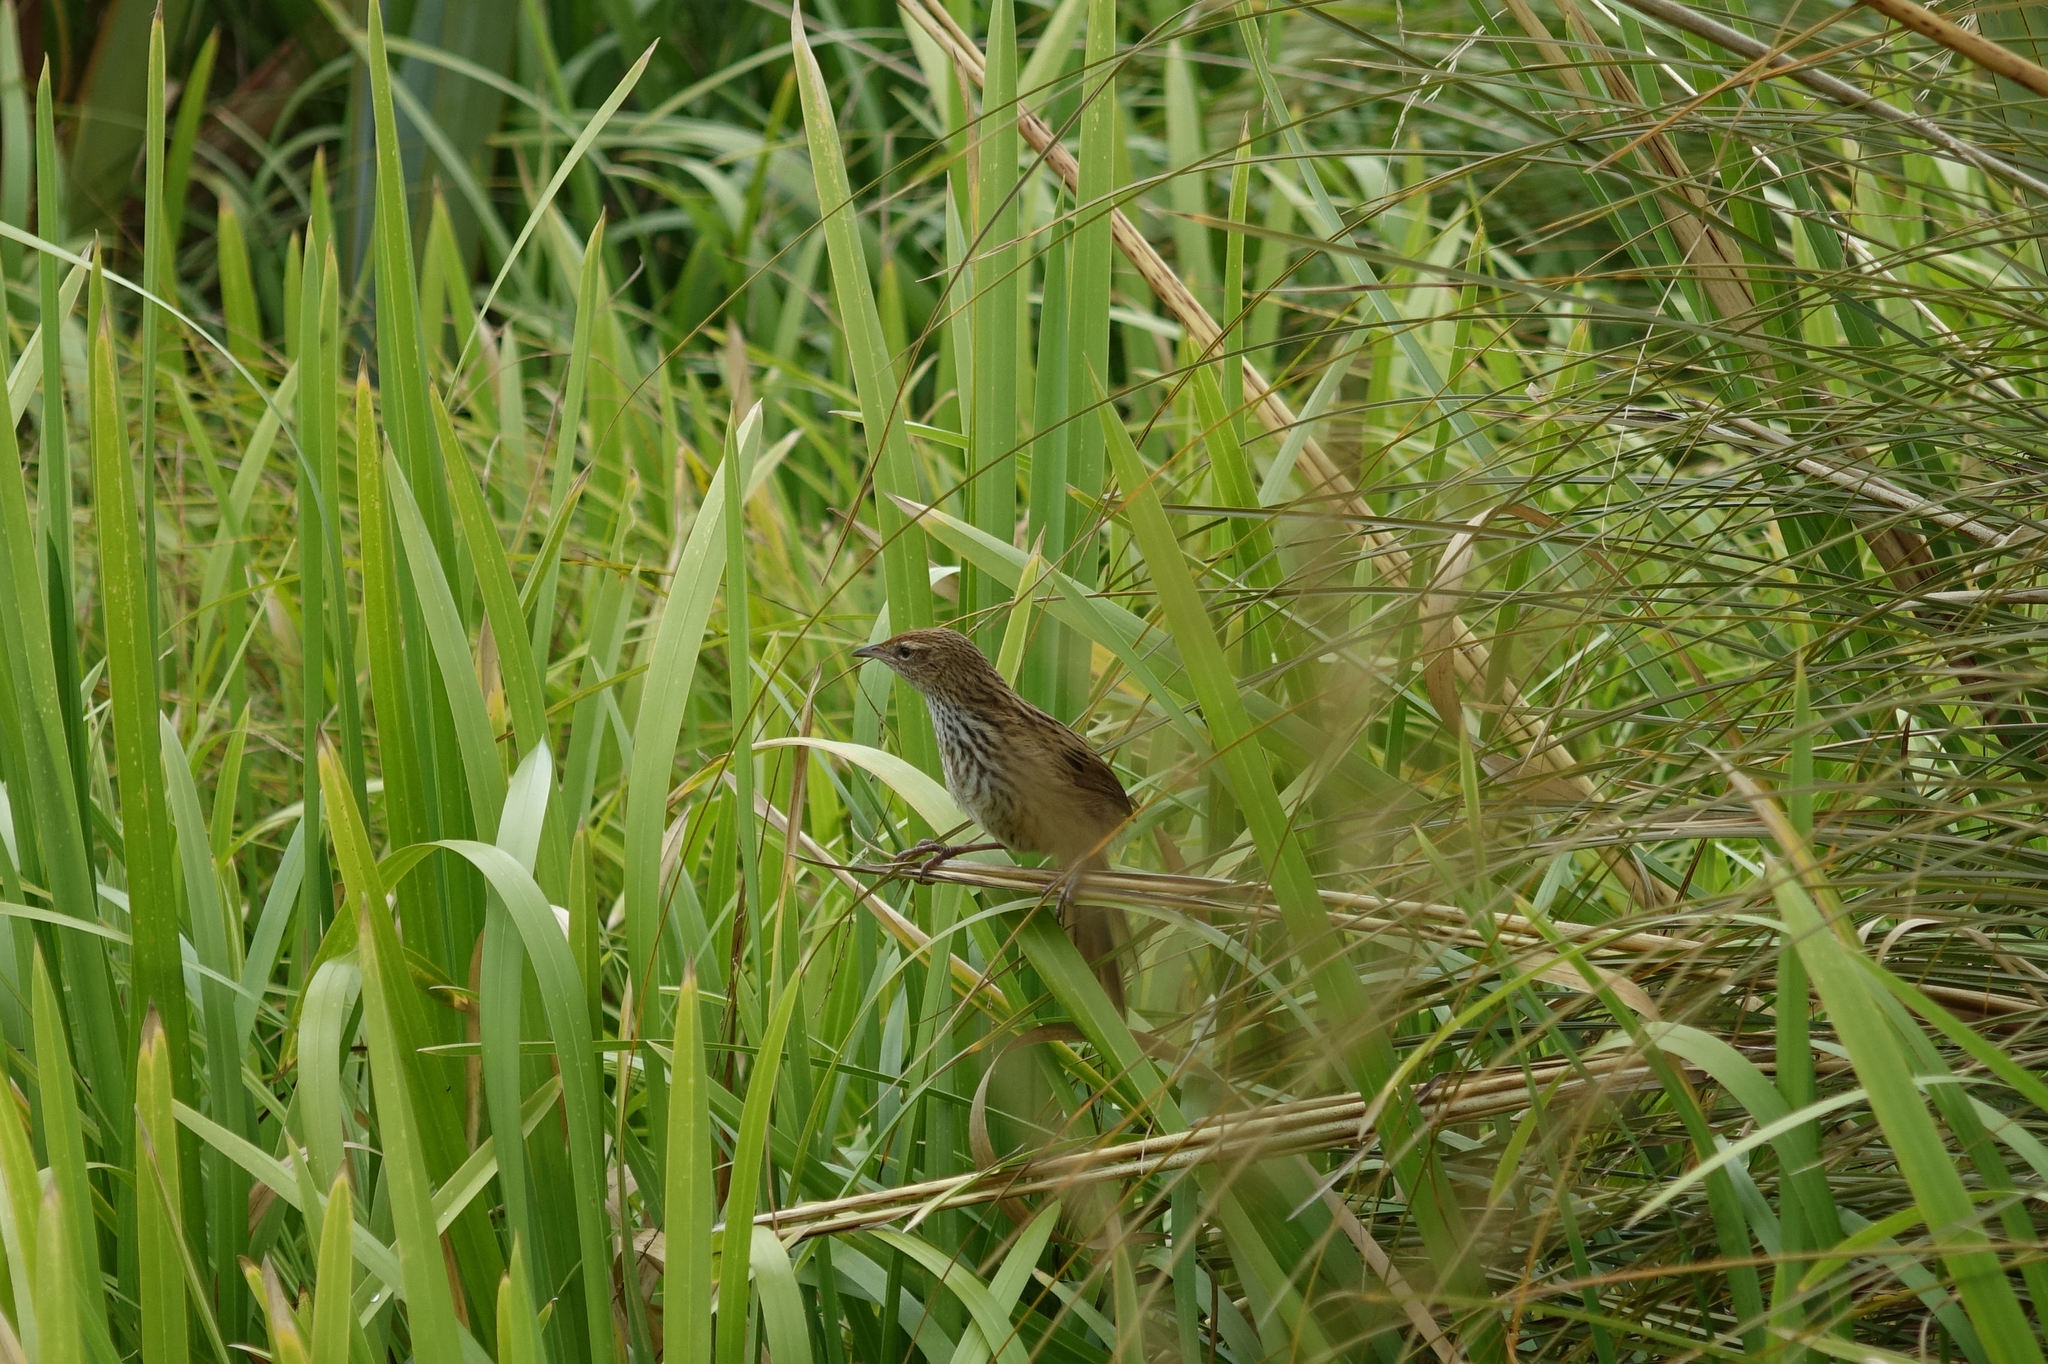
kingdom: Animalia
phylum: Chordata
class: Aves
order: Passeriformes
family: Locustellidae
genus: Poodytes
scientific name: Poodytes punctatus
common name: New zealand fernbird
